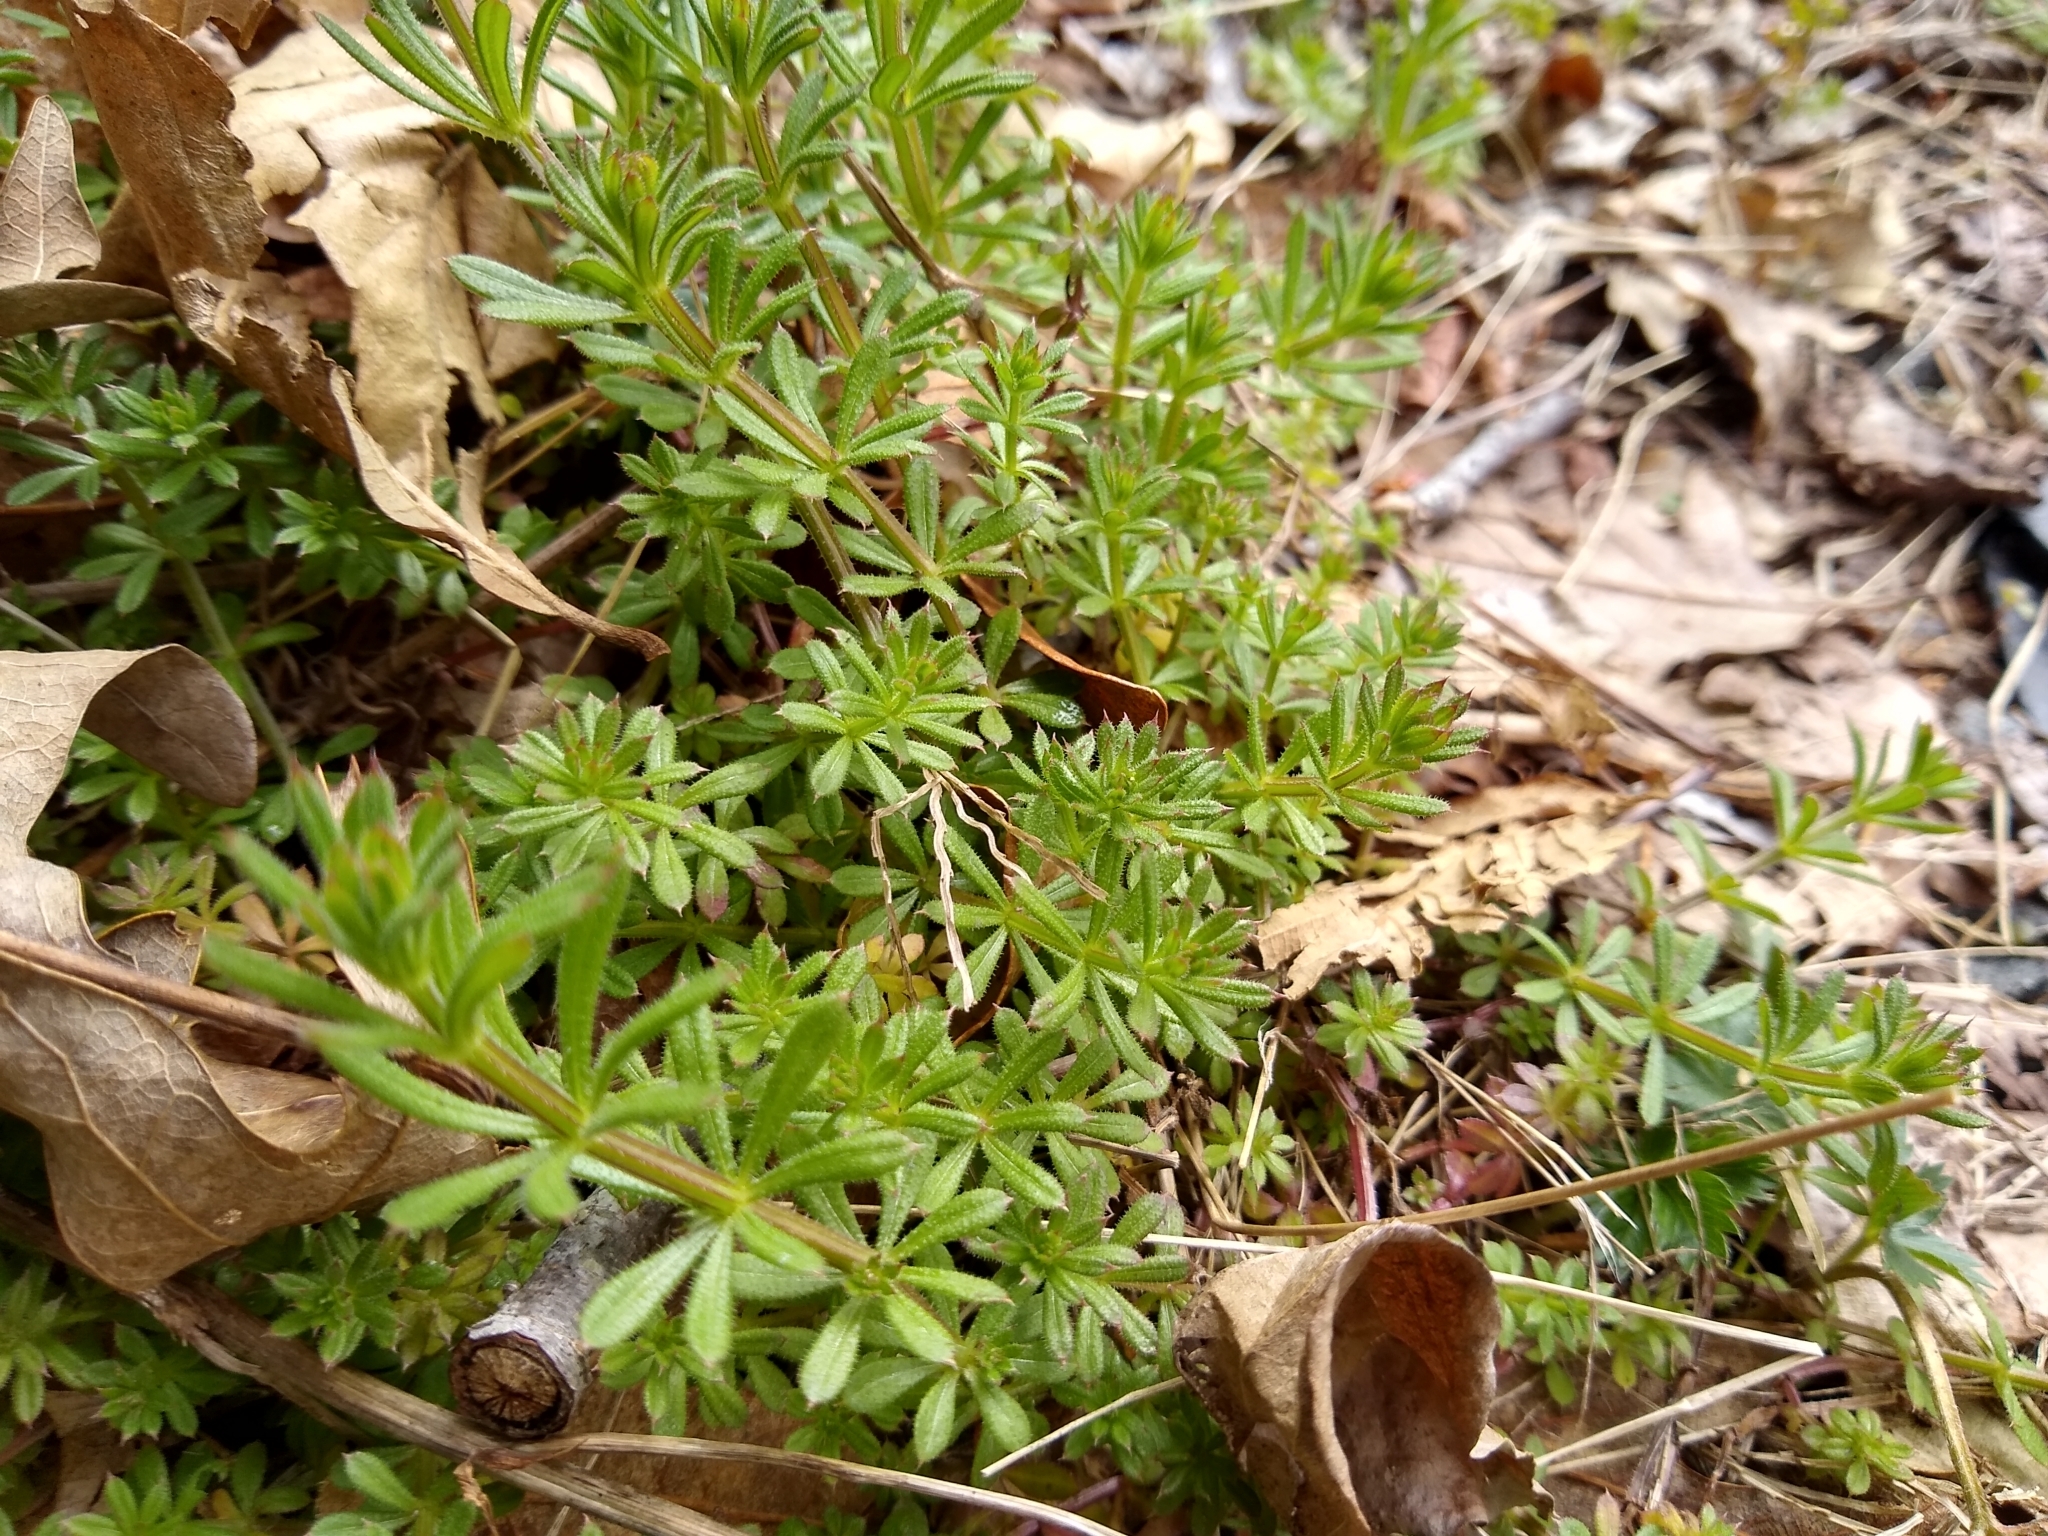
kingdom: Plantae
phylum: Tracheophyta
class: Magnoliopsida
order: Gentianales
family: Rubiaceae
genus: Galium
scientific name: Galium aparine
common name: Cleavers
